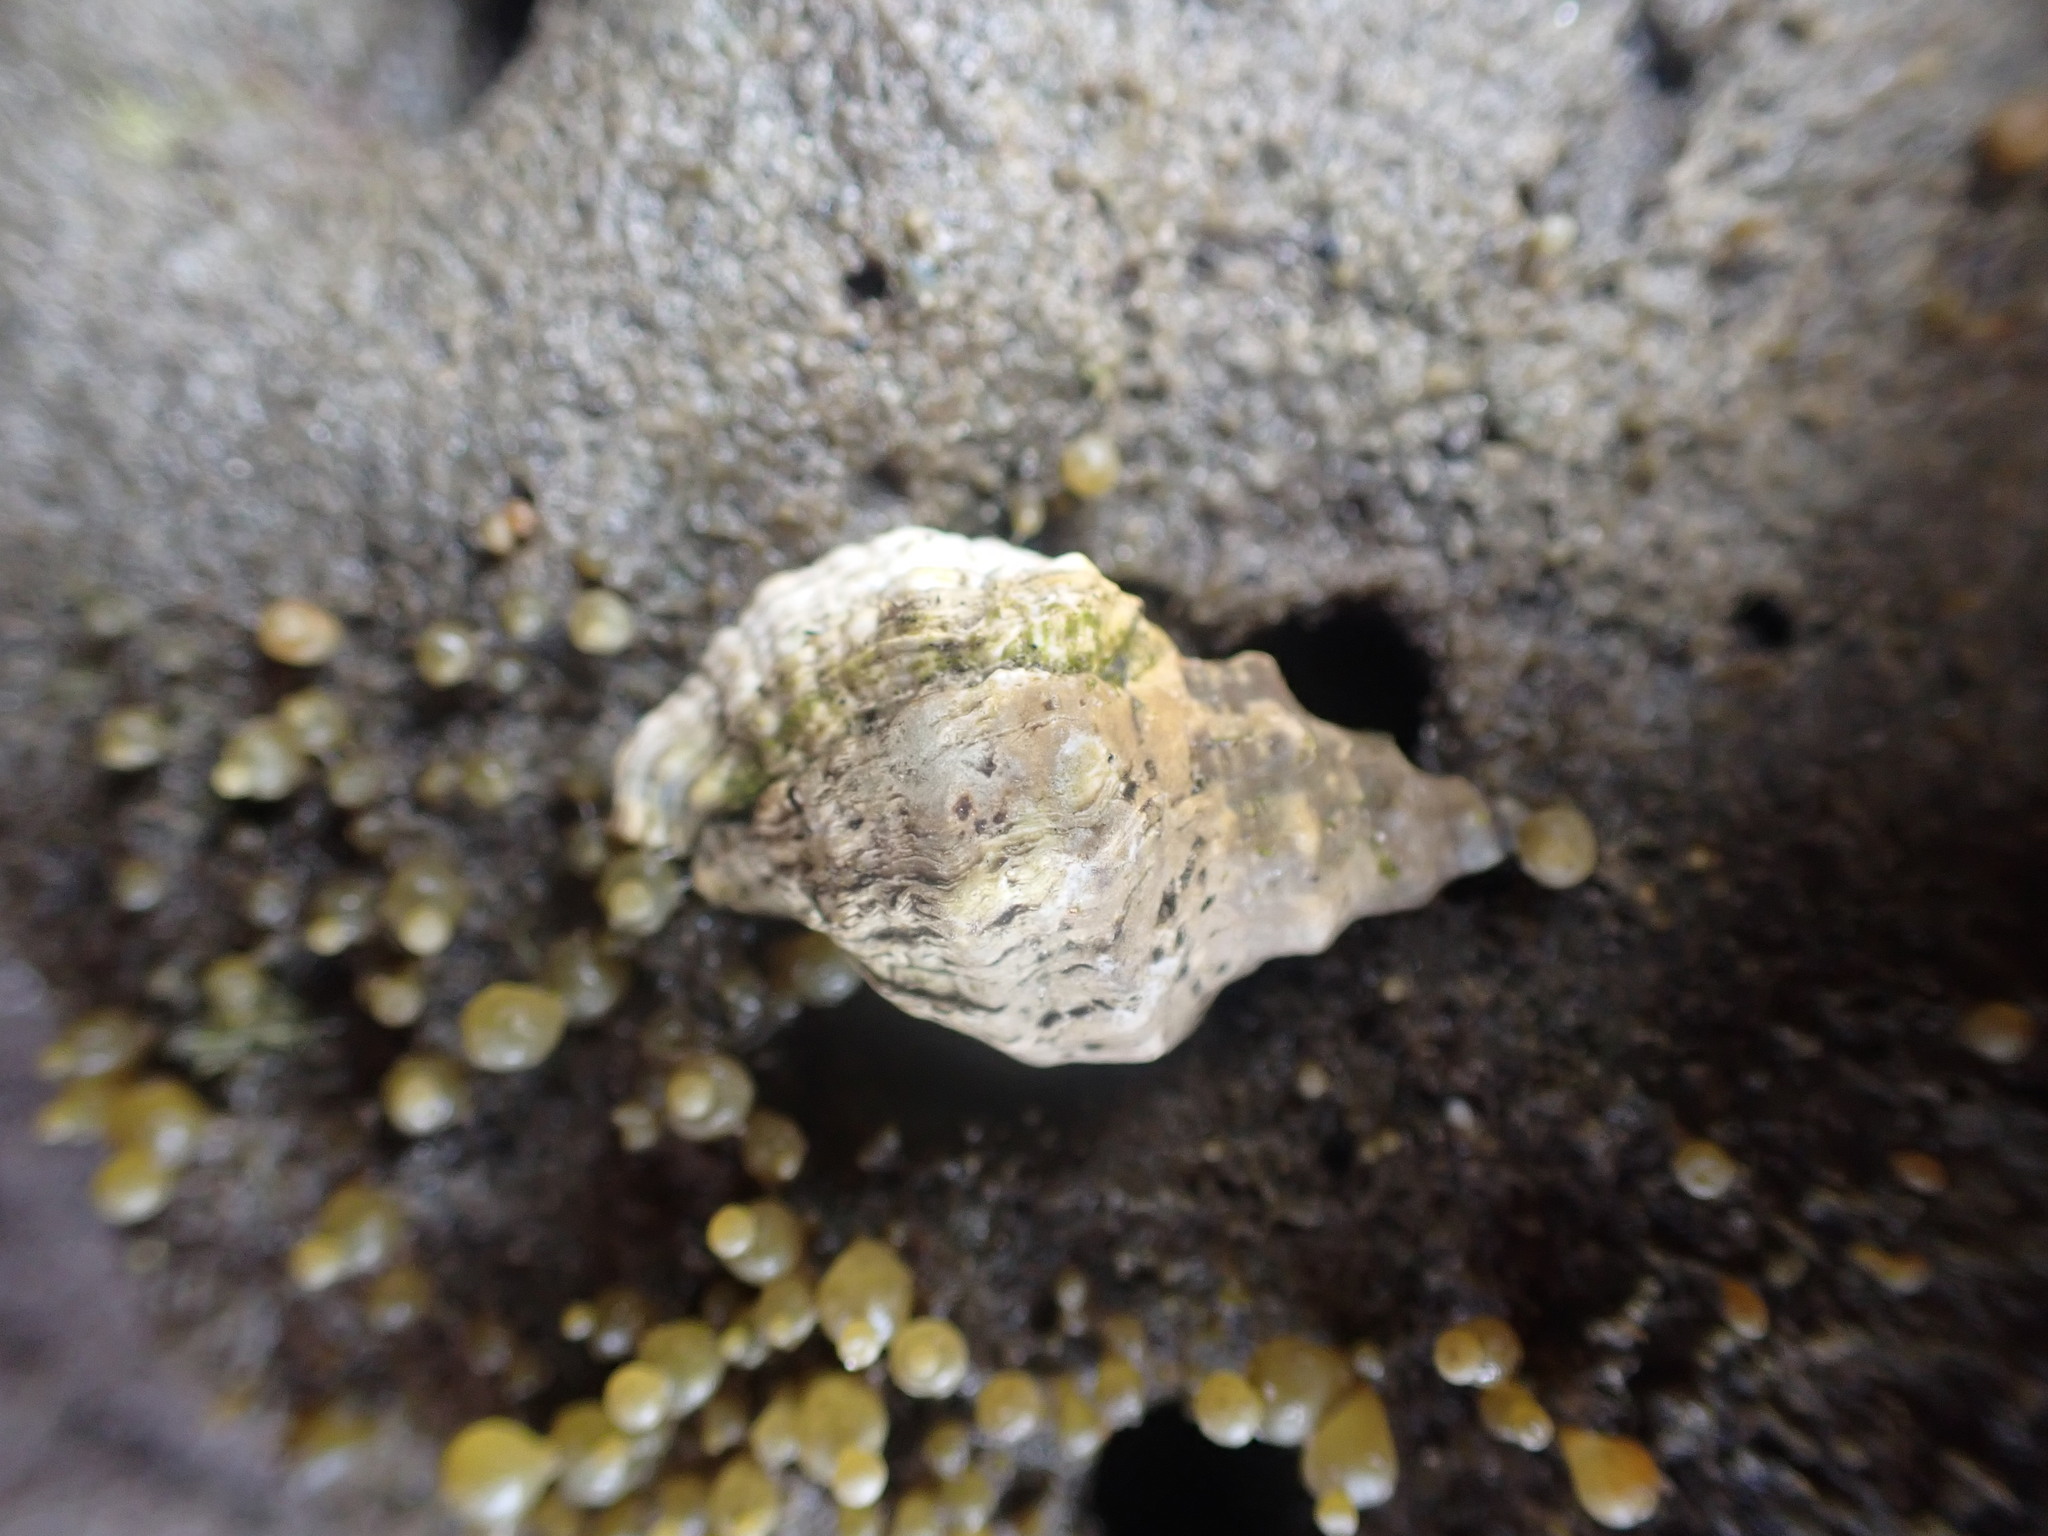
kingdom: Animalia
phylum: Mollusca
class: Gastropoda
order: Neogastropoda
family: Muricidae
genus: Haustrum
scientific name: Haustrum scobina
